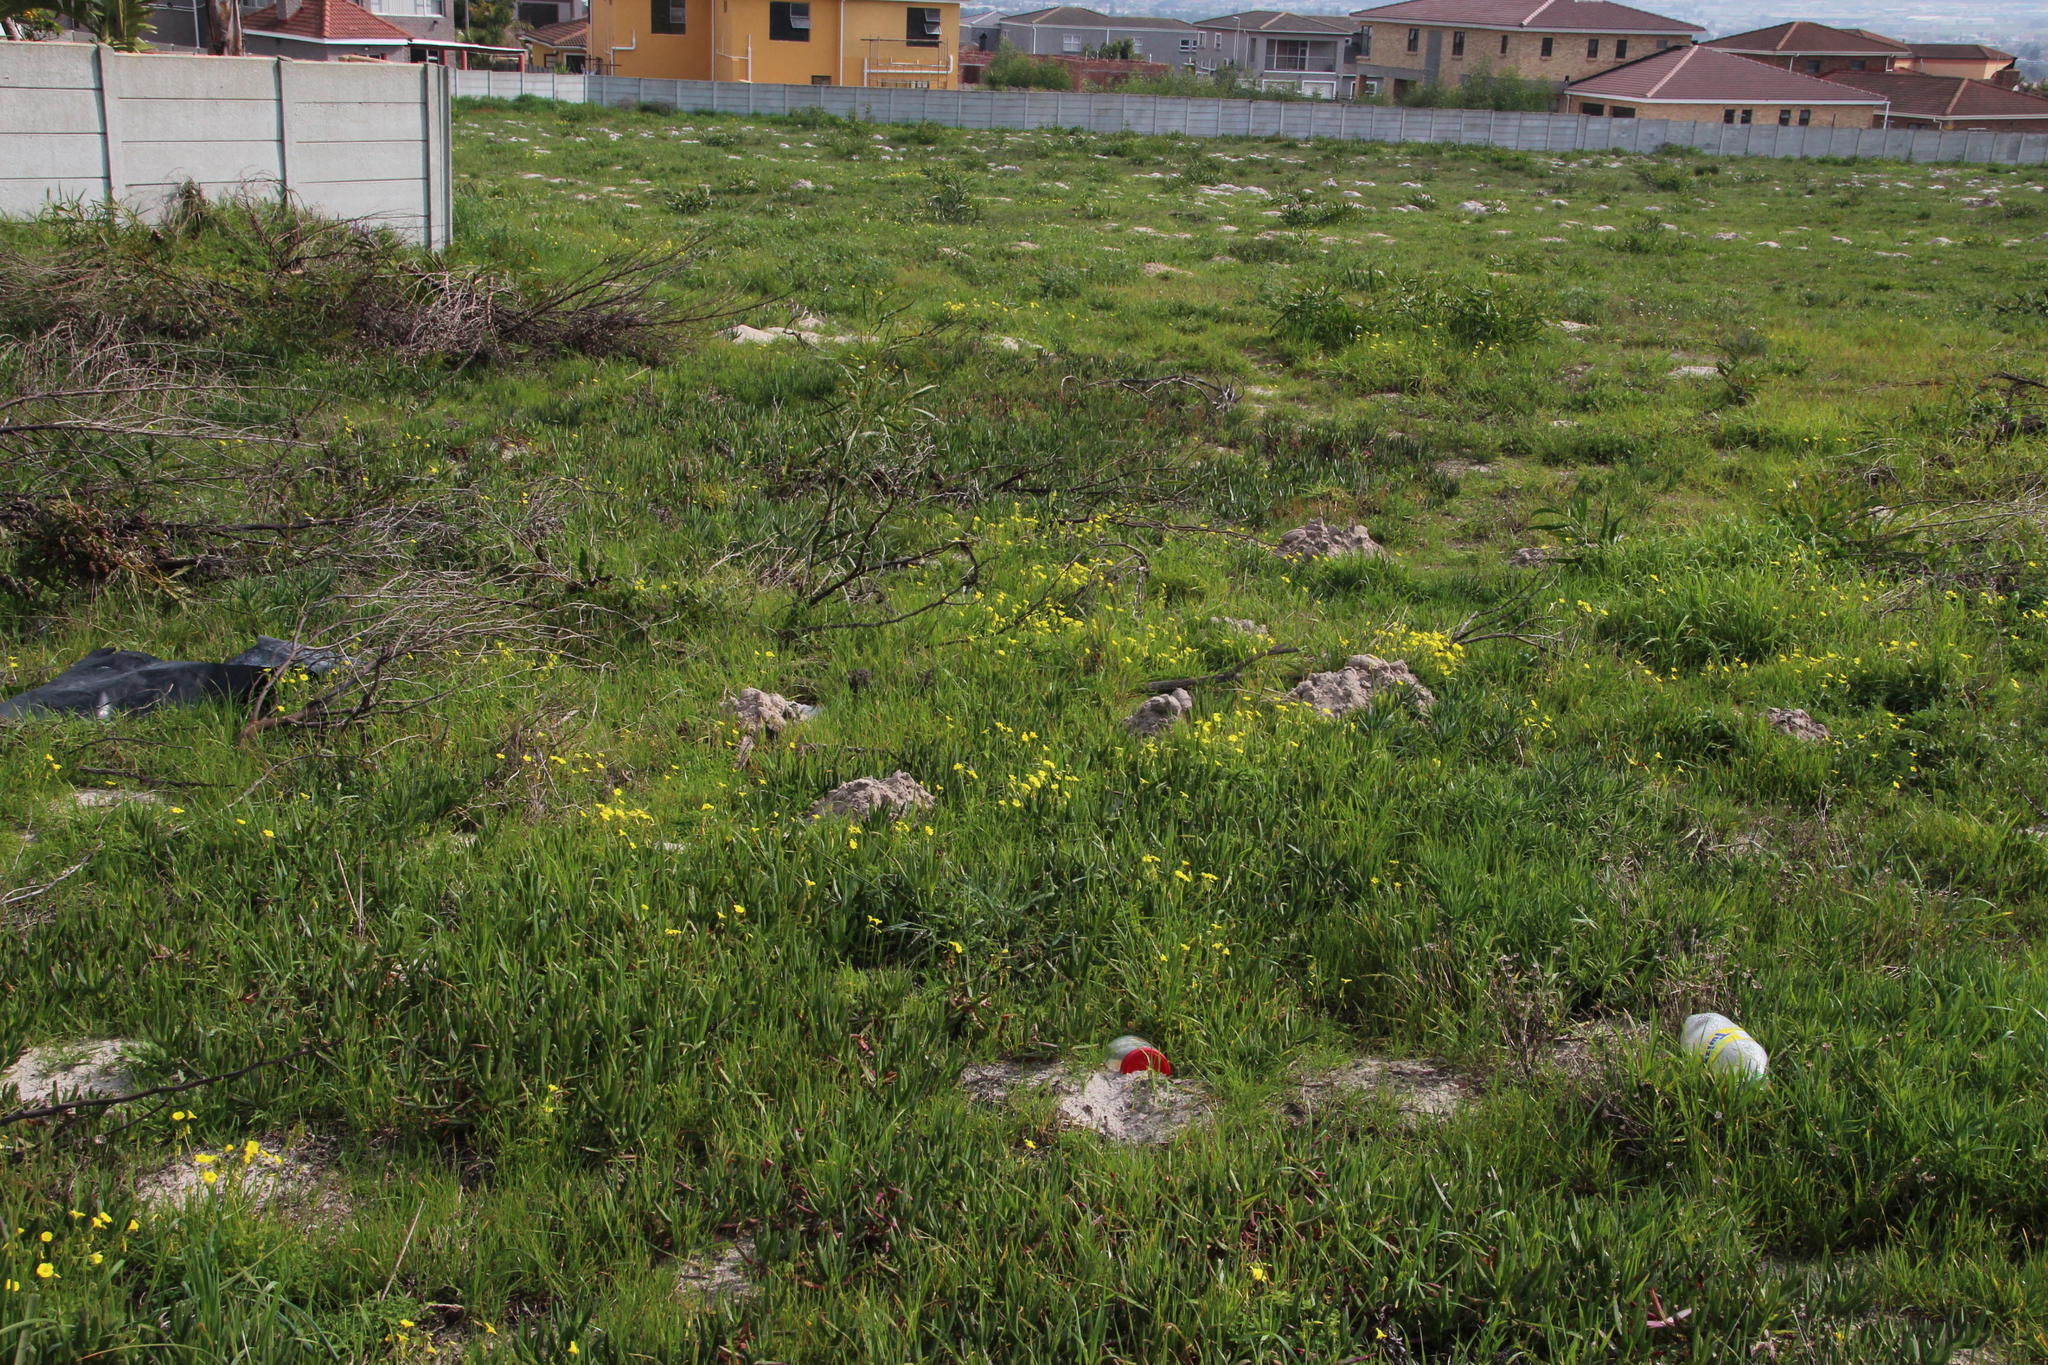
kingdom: Plantae
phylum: Tracheophyta
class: Magnoliopsida
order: Oxalidales
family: Oxalidaceae
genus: Oxalis
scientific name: Oxalis pes-caprae
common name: Bermuda-buttercup
